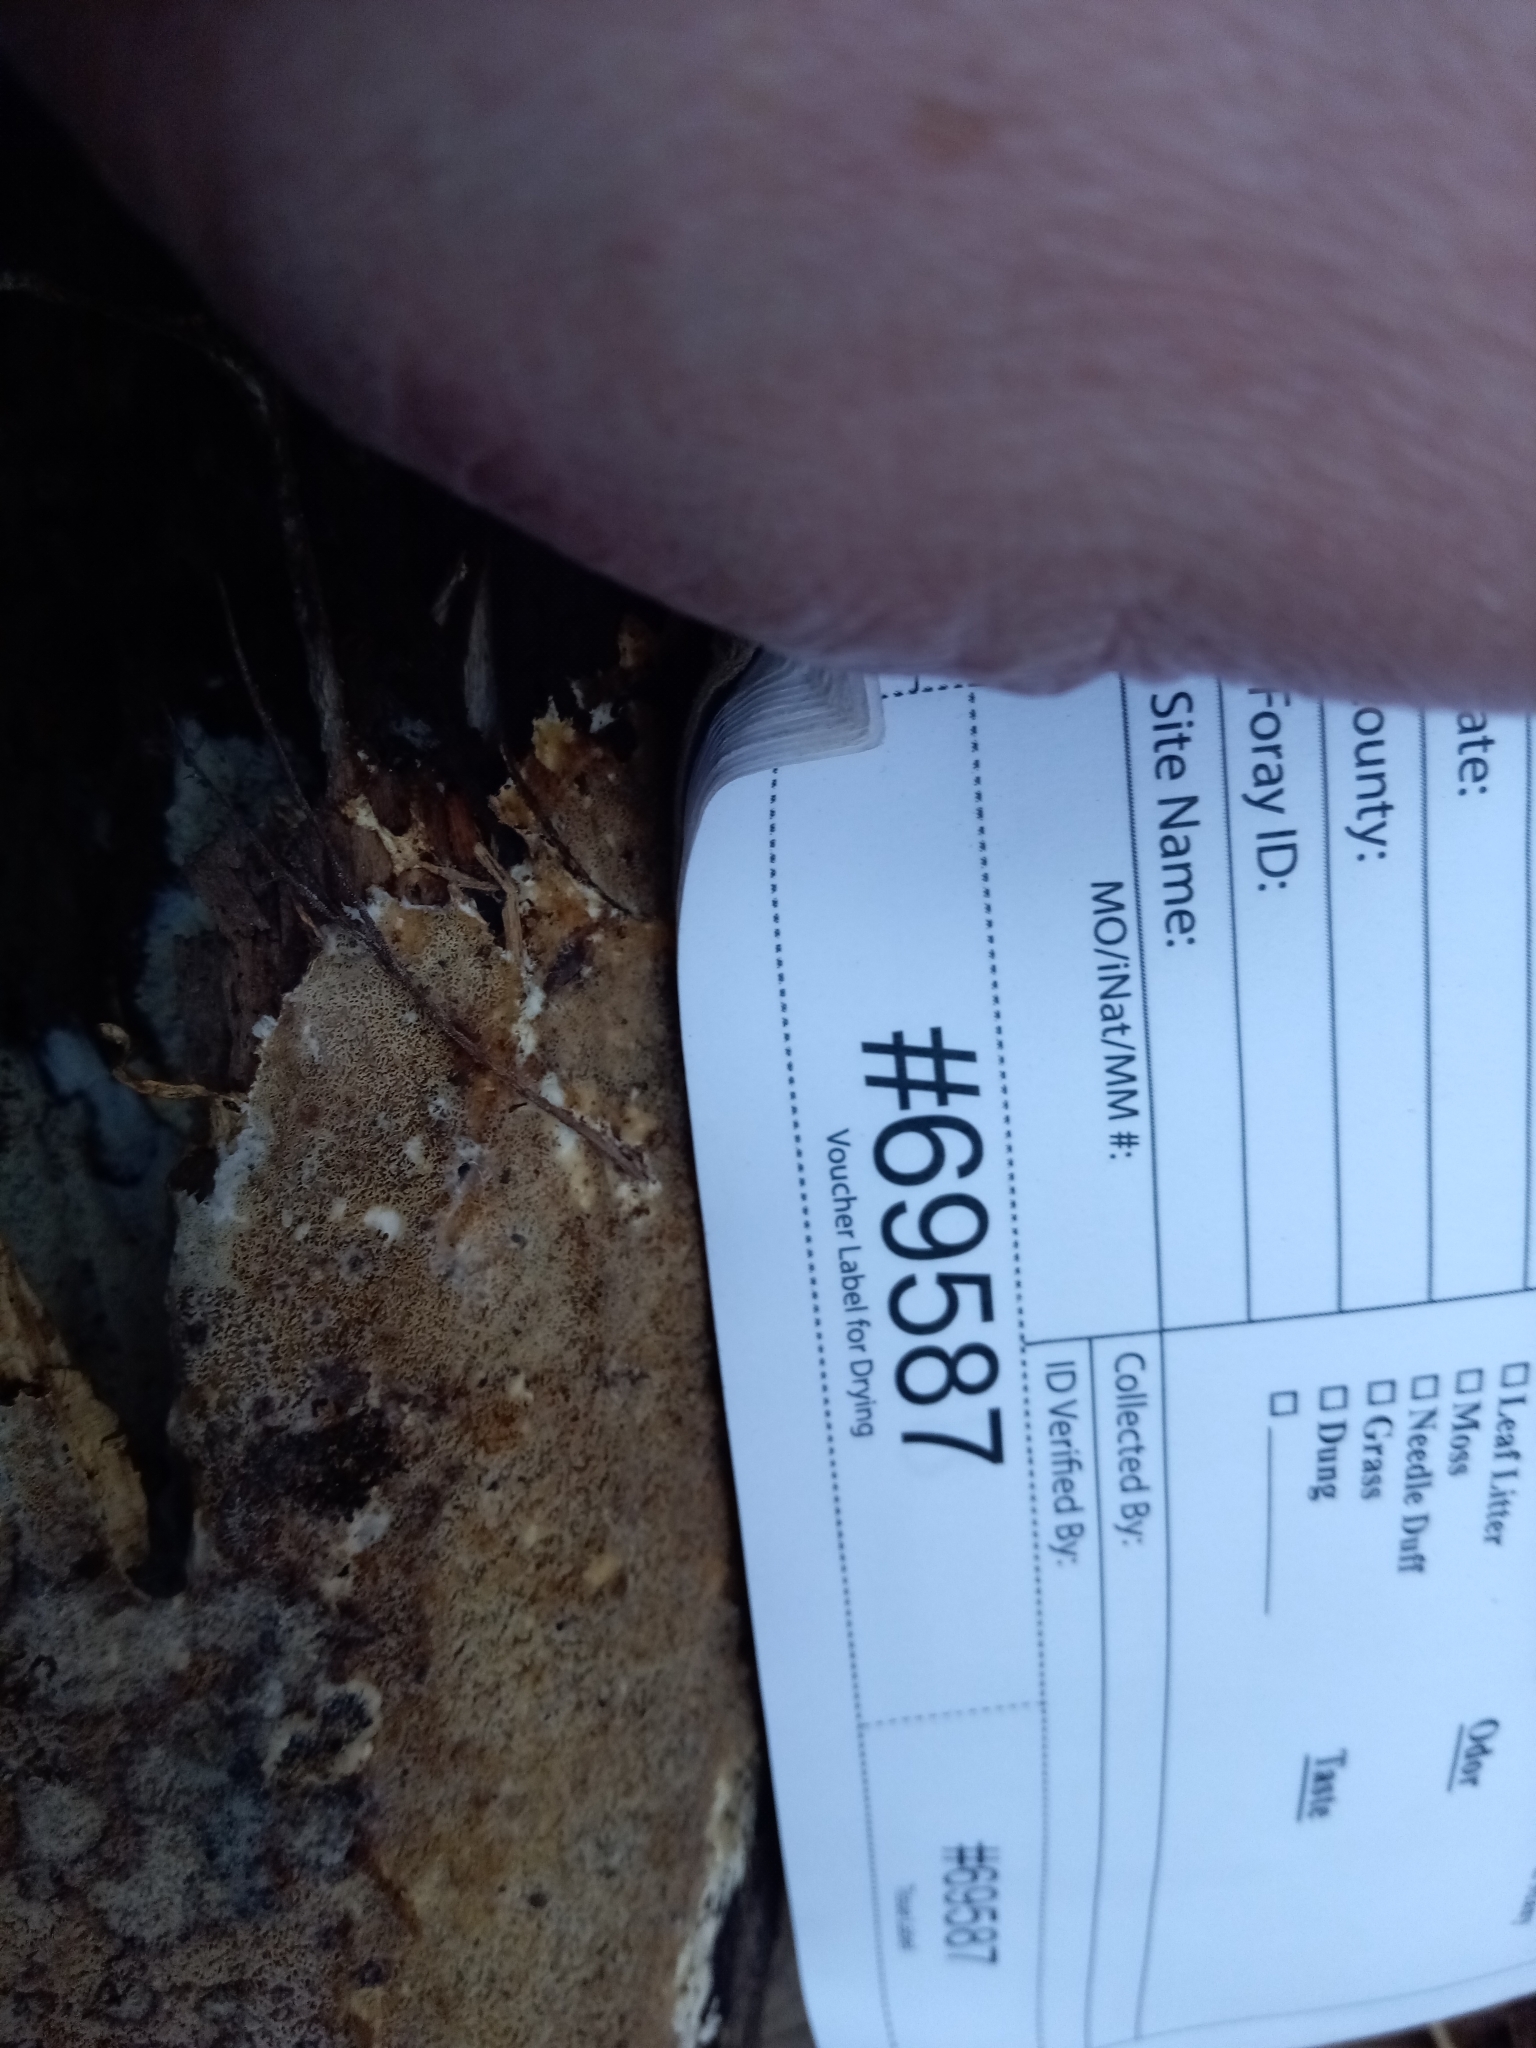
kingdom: Fungi
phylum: Basidiomycota
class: Agaricomycetes
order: Agaricales
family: Porotheleaceae
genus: Porotheleum
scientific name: Porotheleum fimbriatum
